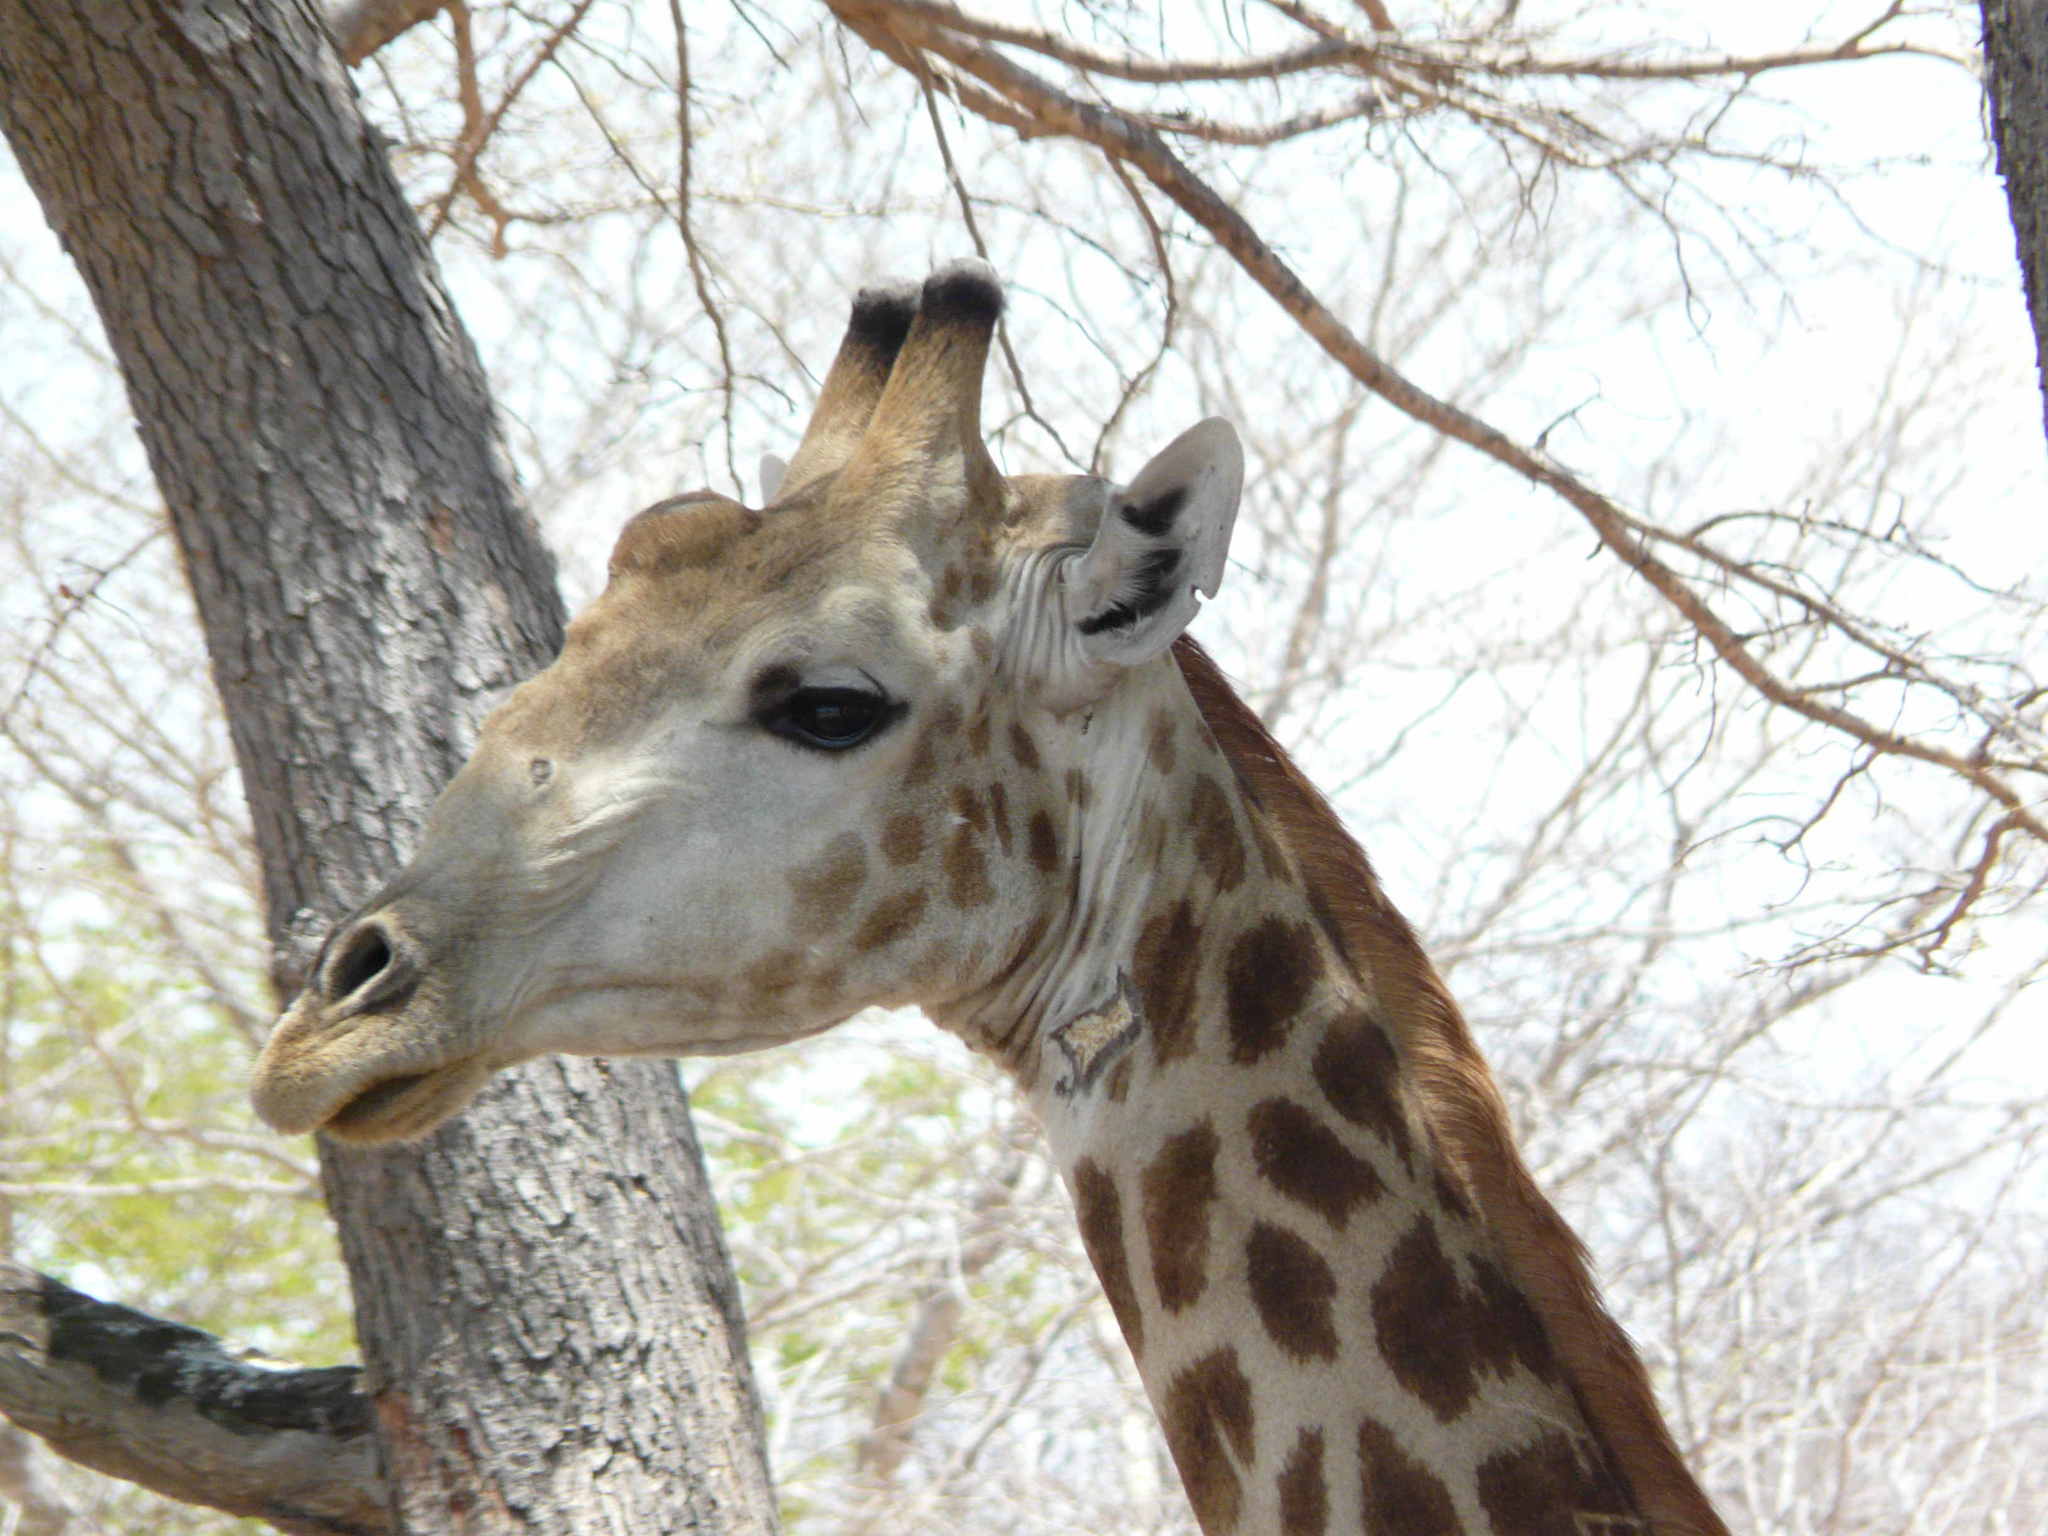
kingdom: Animalia
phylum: Chordata
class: Mammalia
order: Artiodactyla
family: Giraffidae
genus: Giraffa
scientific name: Giraffa giraffa
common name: Southern giraffe
